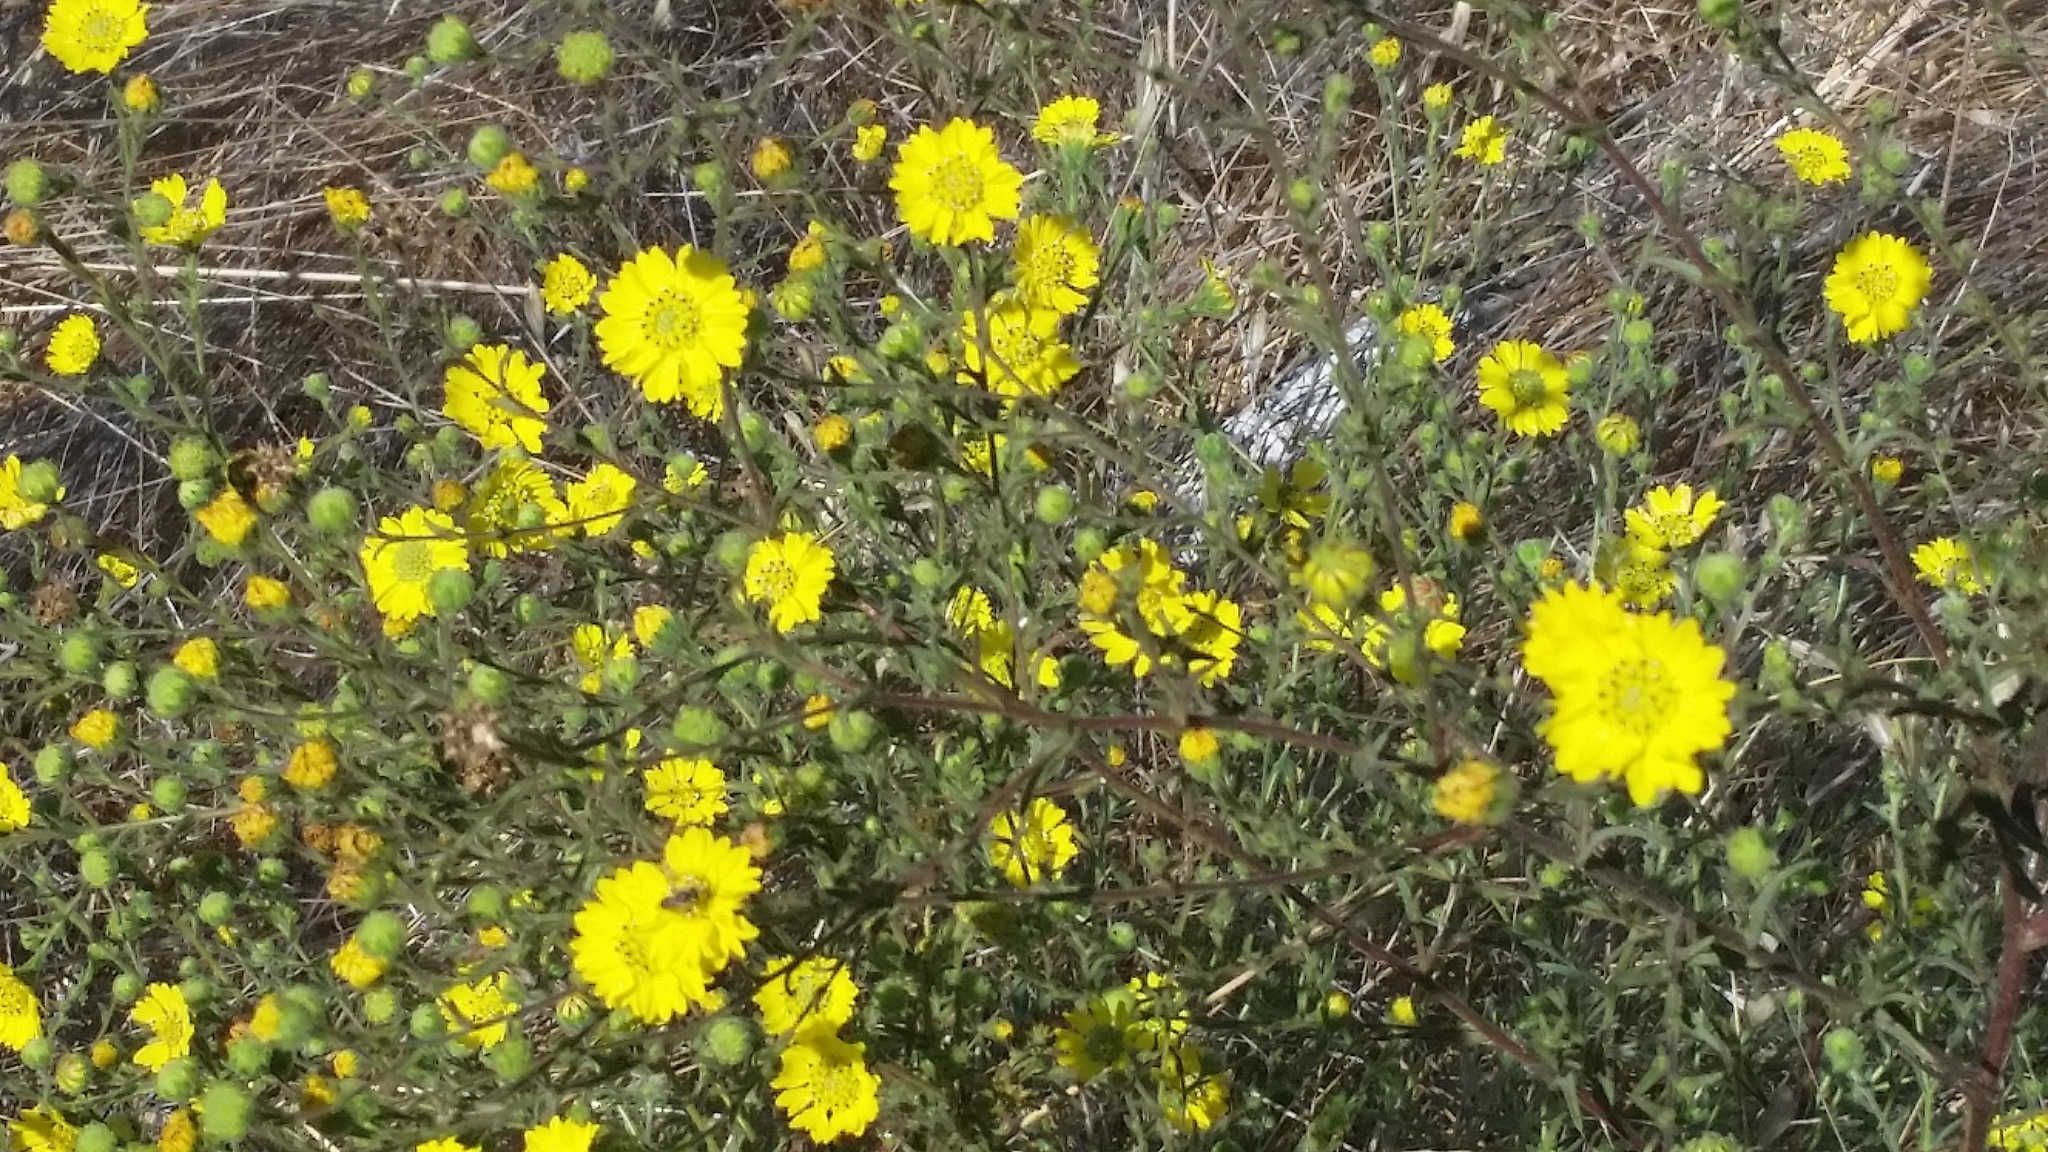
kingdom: Plantae
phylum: Tracheophyta
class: Magnoliopsida
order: Asterales
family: Asteraceae
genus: Hemizonia
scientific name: Hemizonia congesta
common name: Hayfield tarweed
